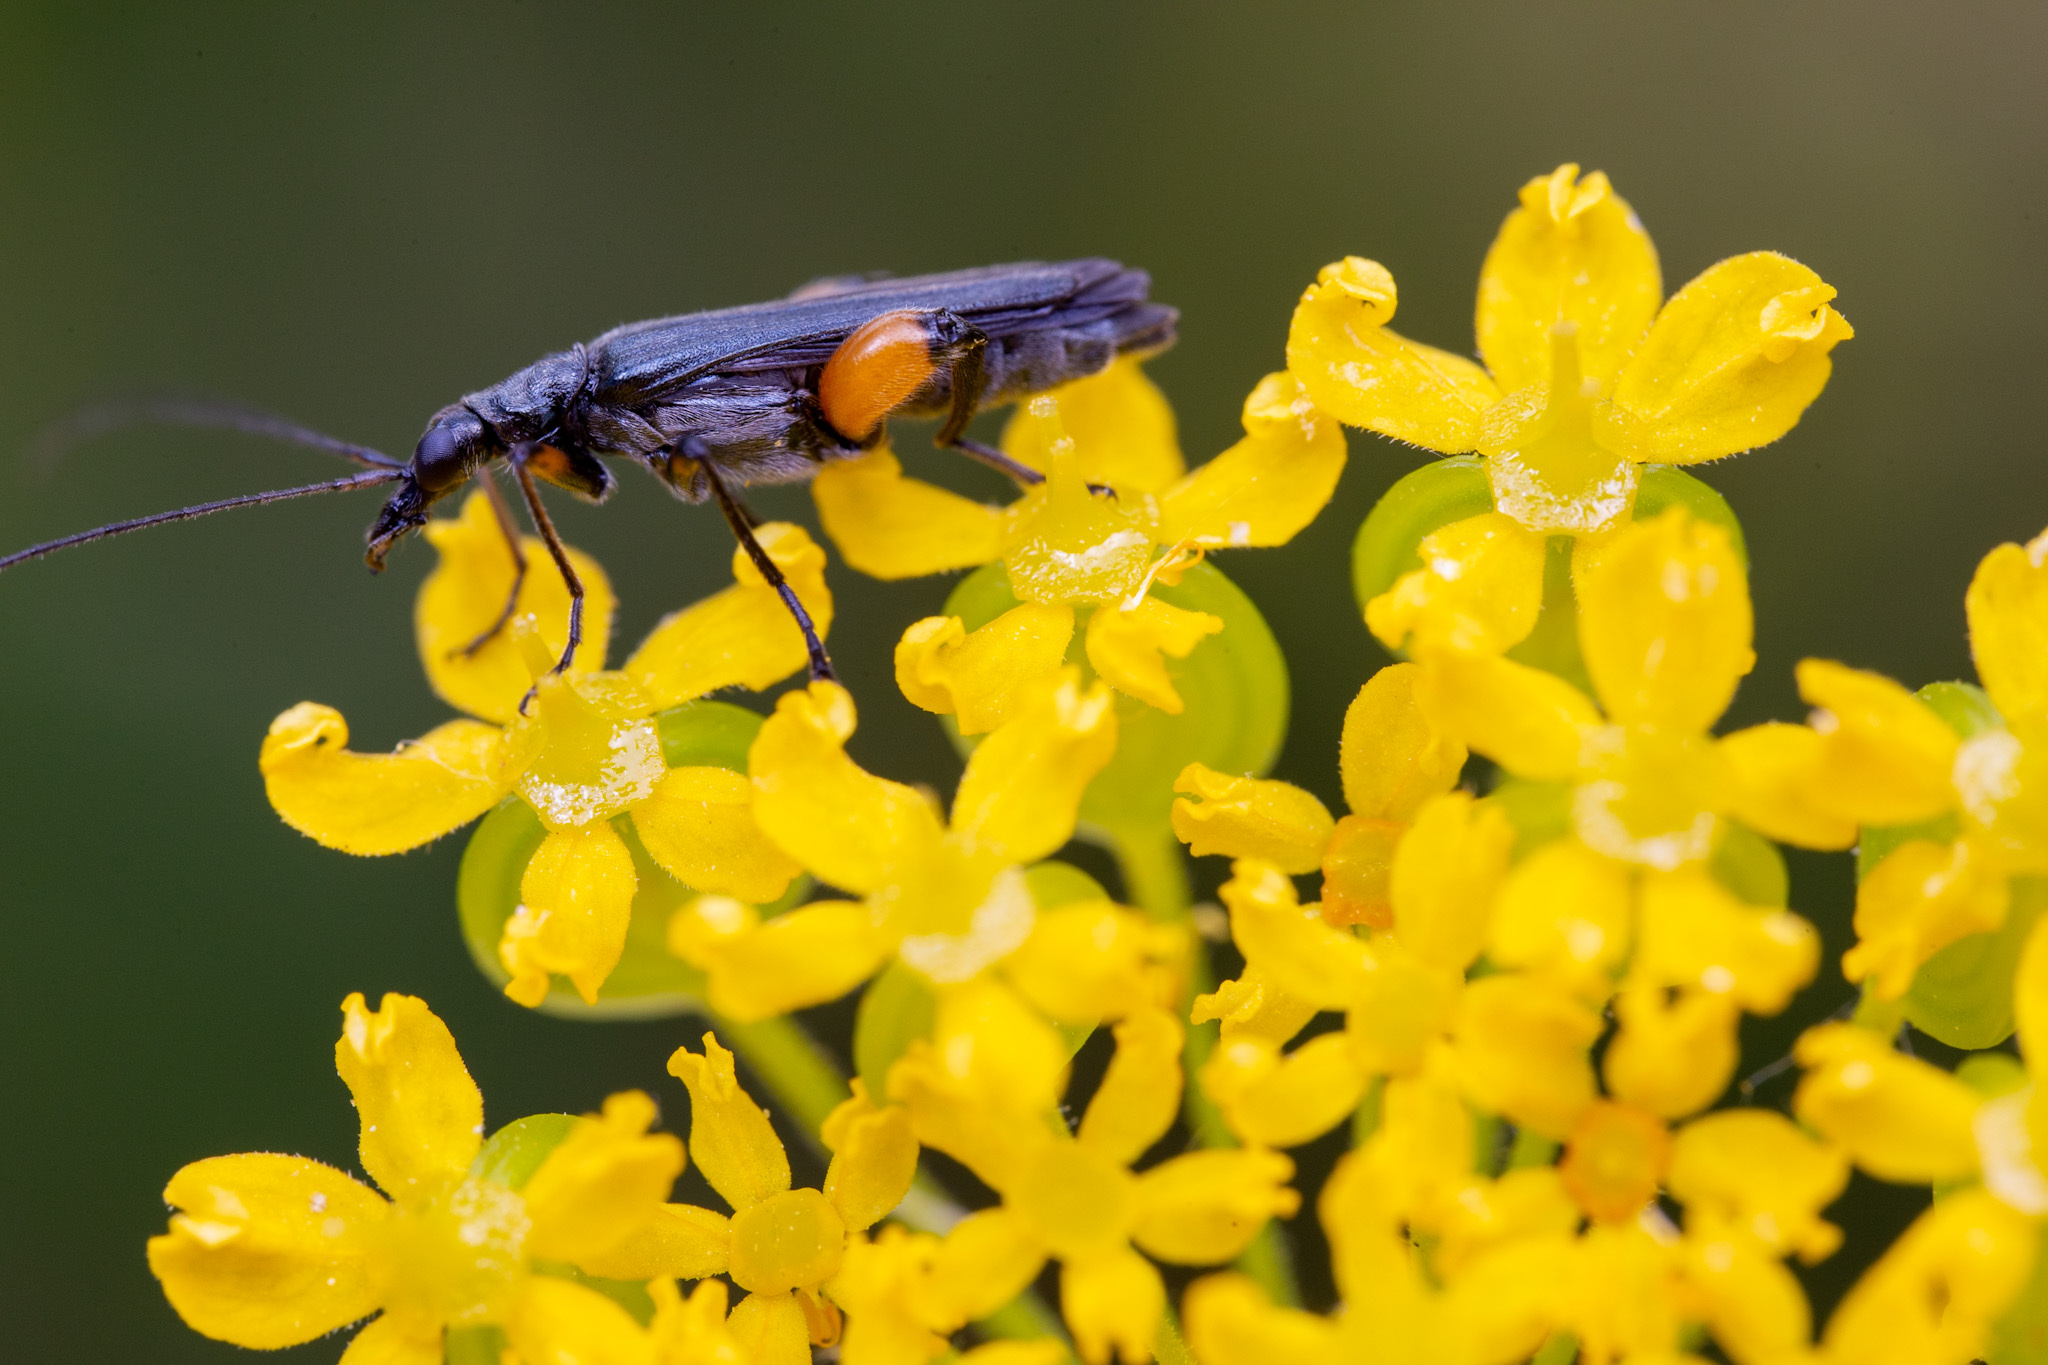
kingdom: Animalia
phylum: Arthropoda
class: Insecta
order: Coleoptera
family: Oedemeridae
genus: Oedemera
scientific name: Oedemera rufofemorata
